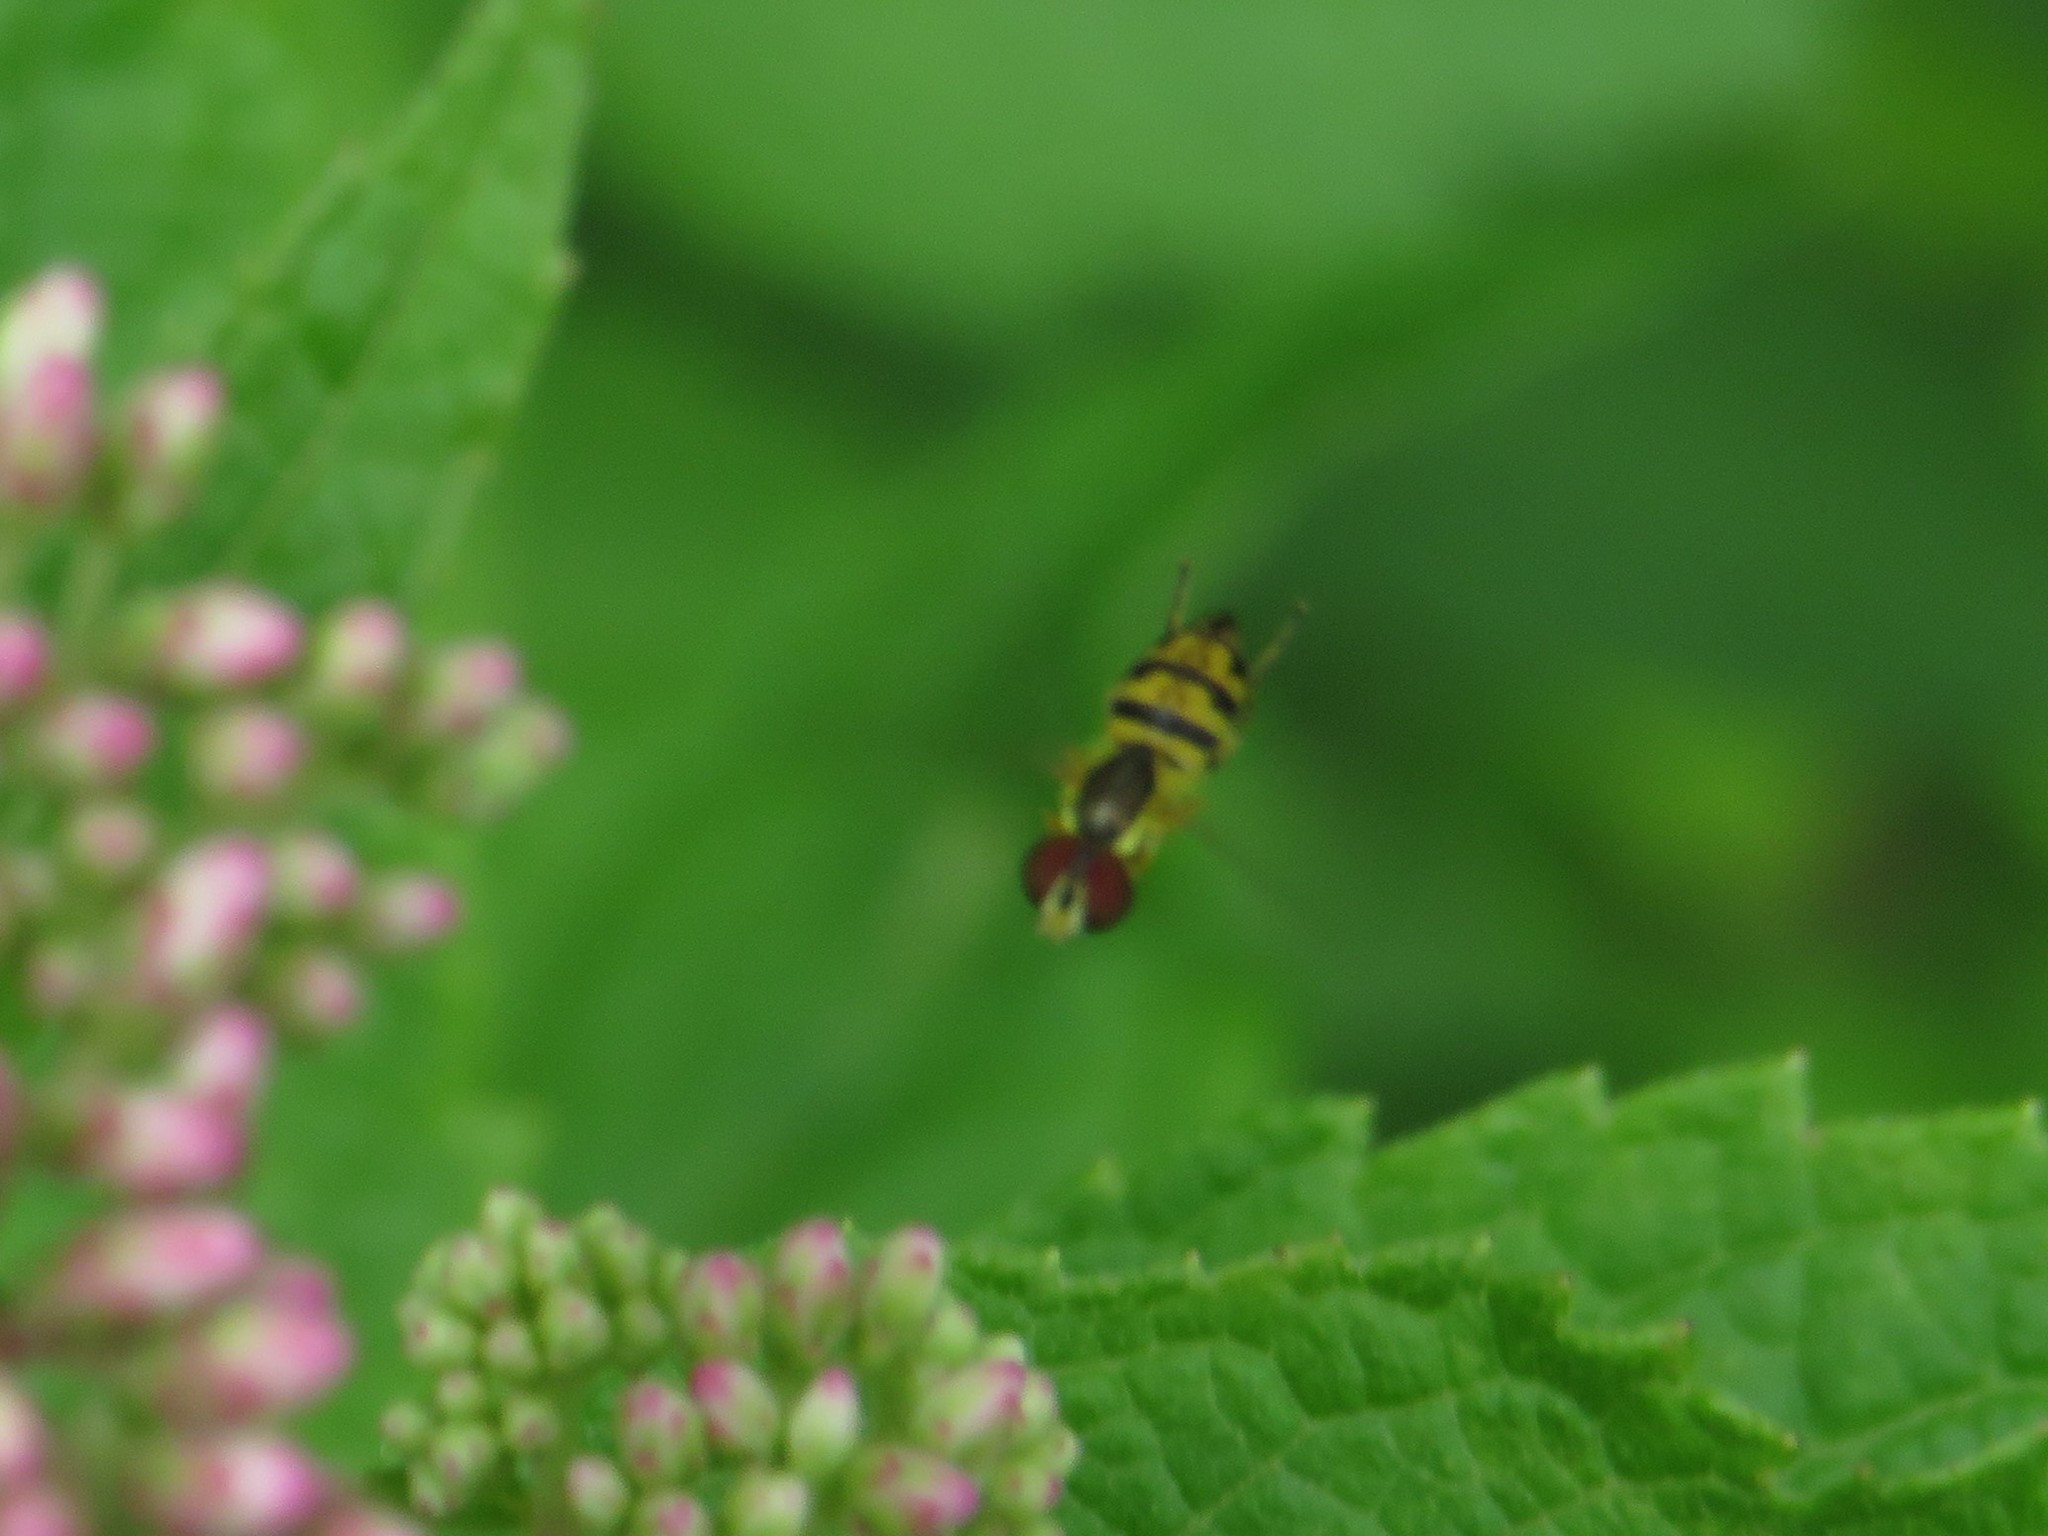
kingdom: Animalia
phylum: Arthropoda
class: Insecta
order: Diptera
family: Syrphidae
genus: Toxomerus
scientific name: Toxomerus geminatus
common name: Eastern calligrapher
